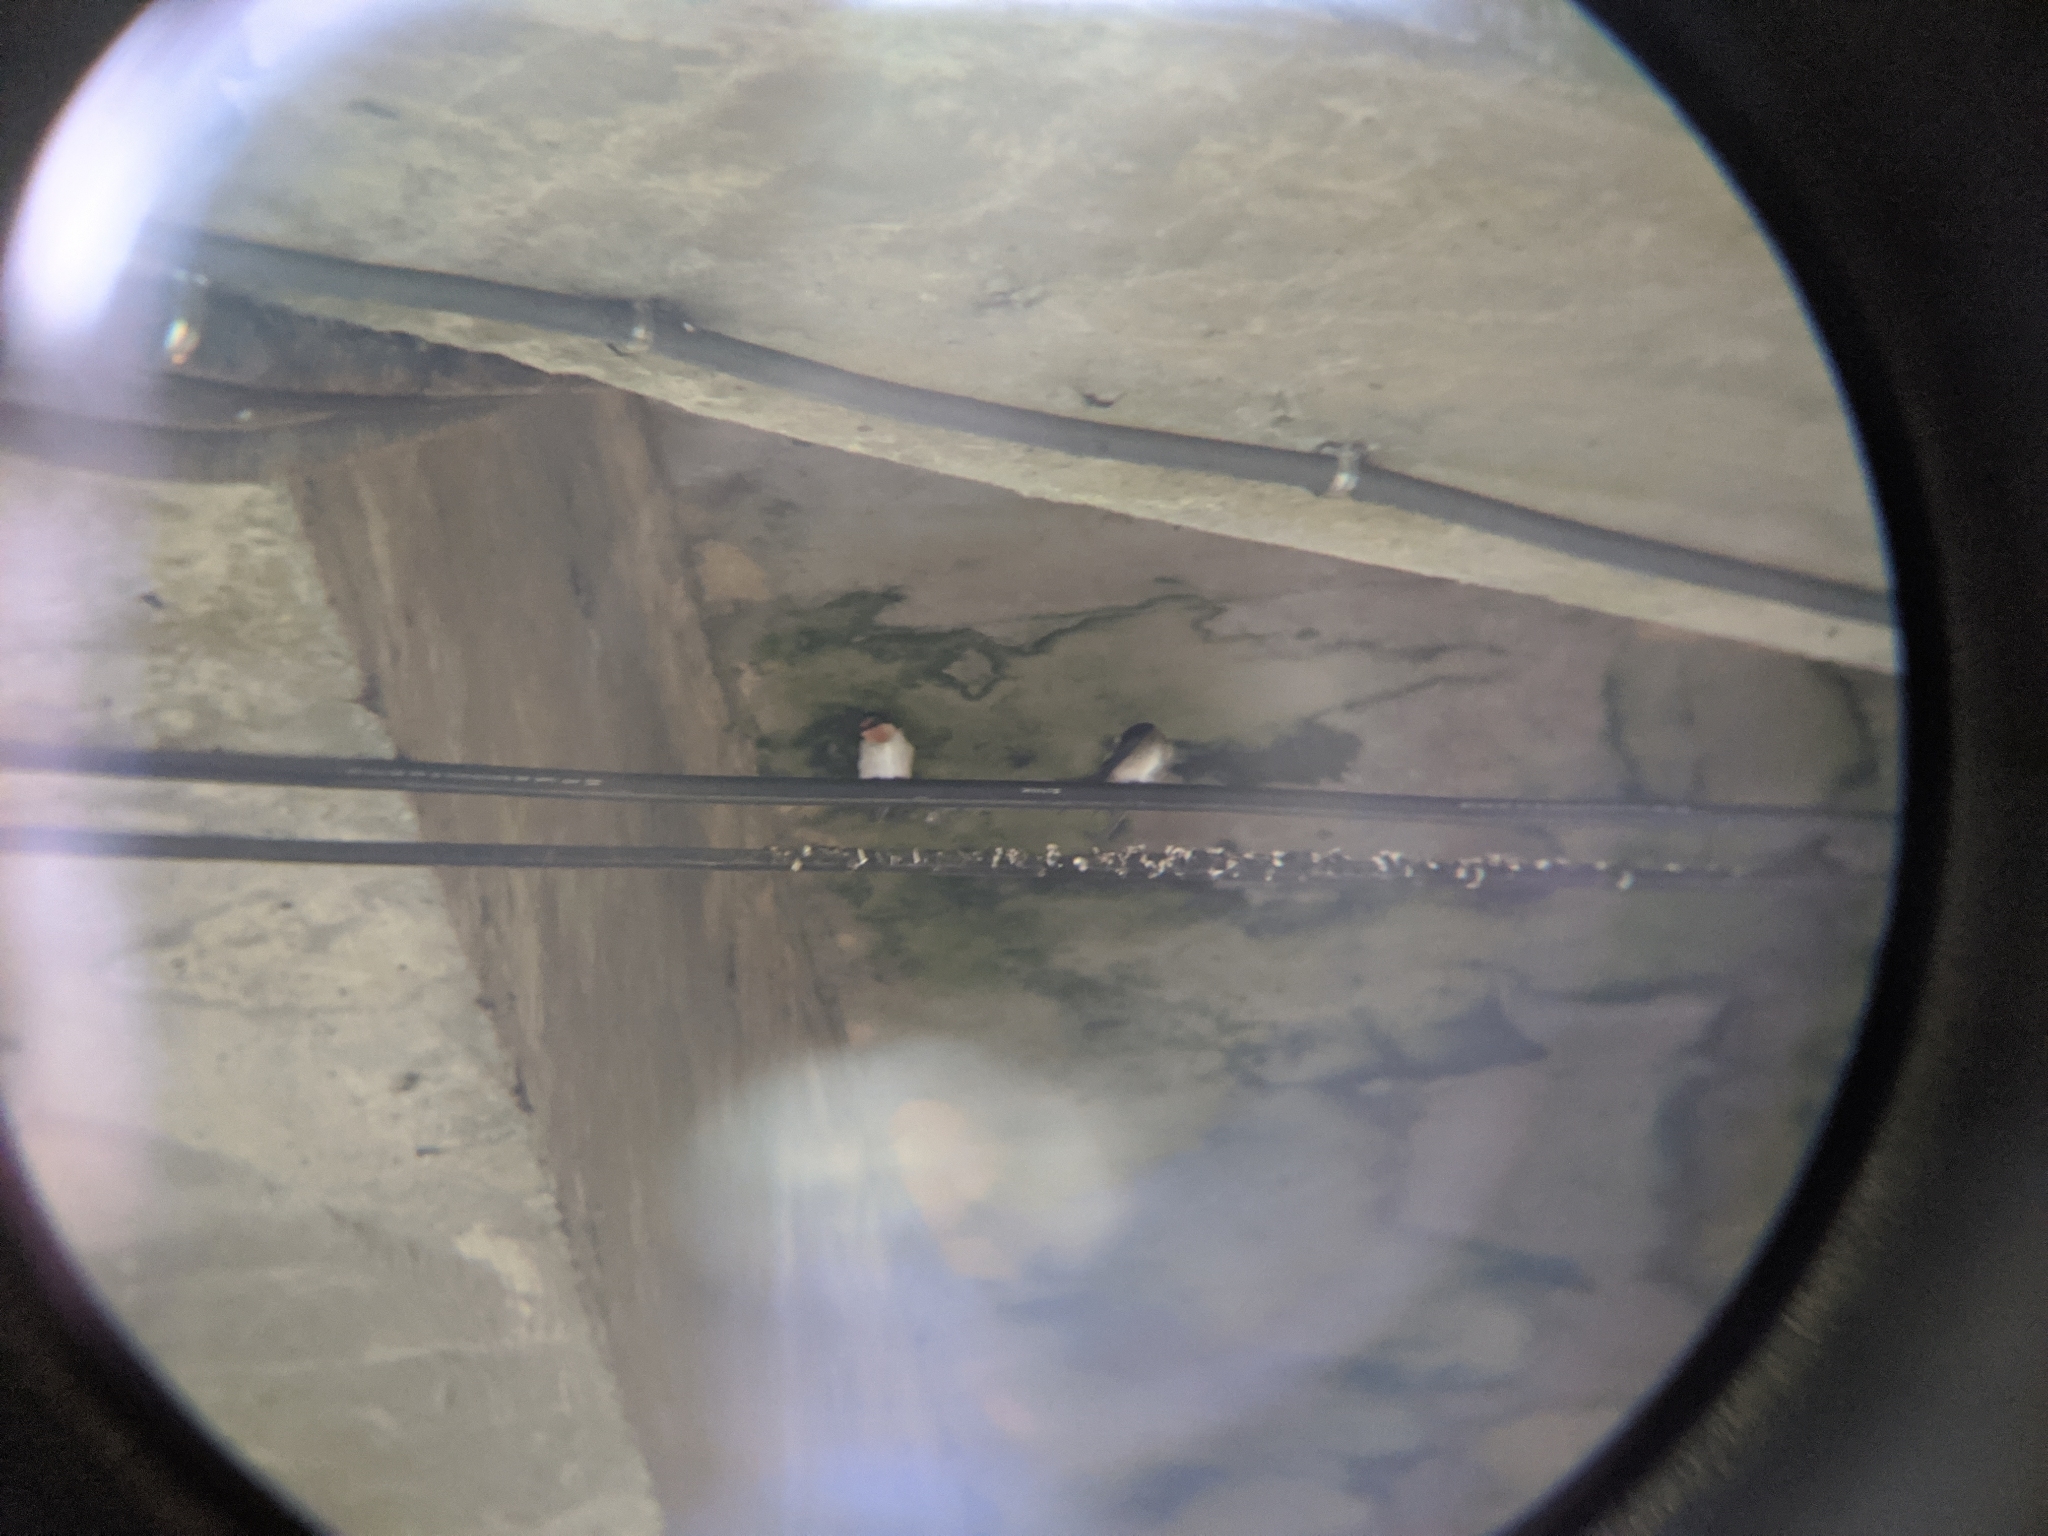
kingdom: Animalia
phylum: Chordata
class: Aves
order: Passeriformes
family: Hirundinidae
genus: Hirundo
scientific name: Hirundo tahitica
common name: Pacific swallow
